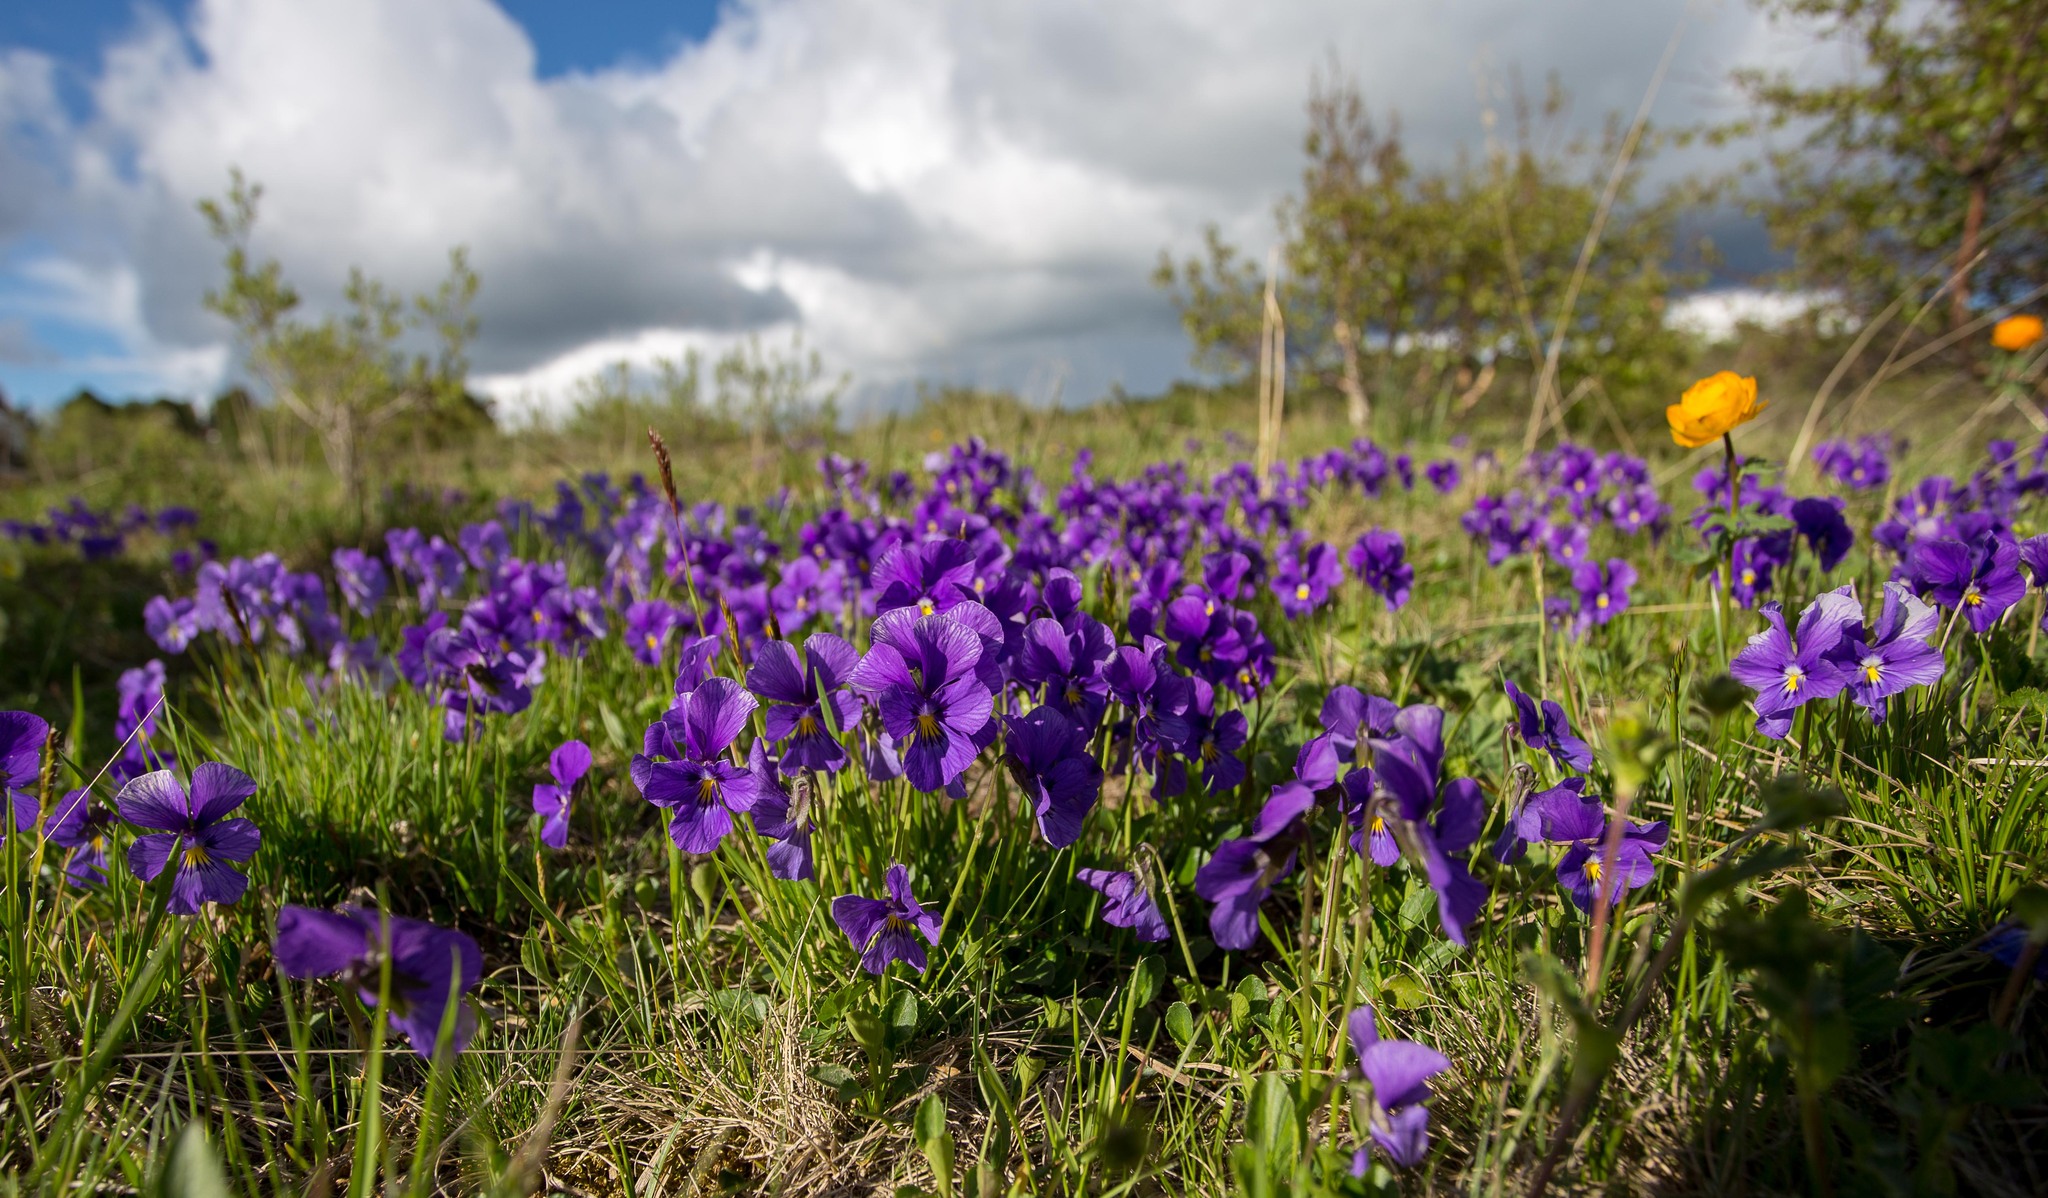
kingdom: Plantae
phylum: Tracheophyta
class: Magnoliopsida
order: Malpighiales
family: Violaceae
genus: Viola
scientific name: Viola altaica
